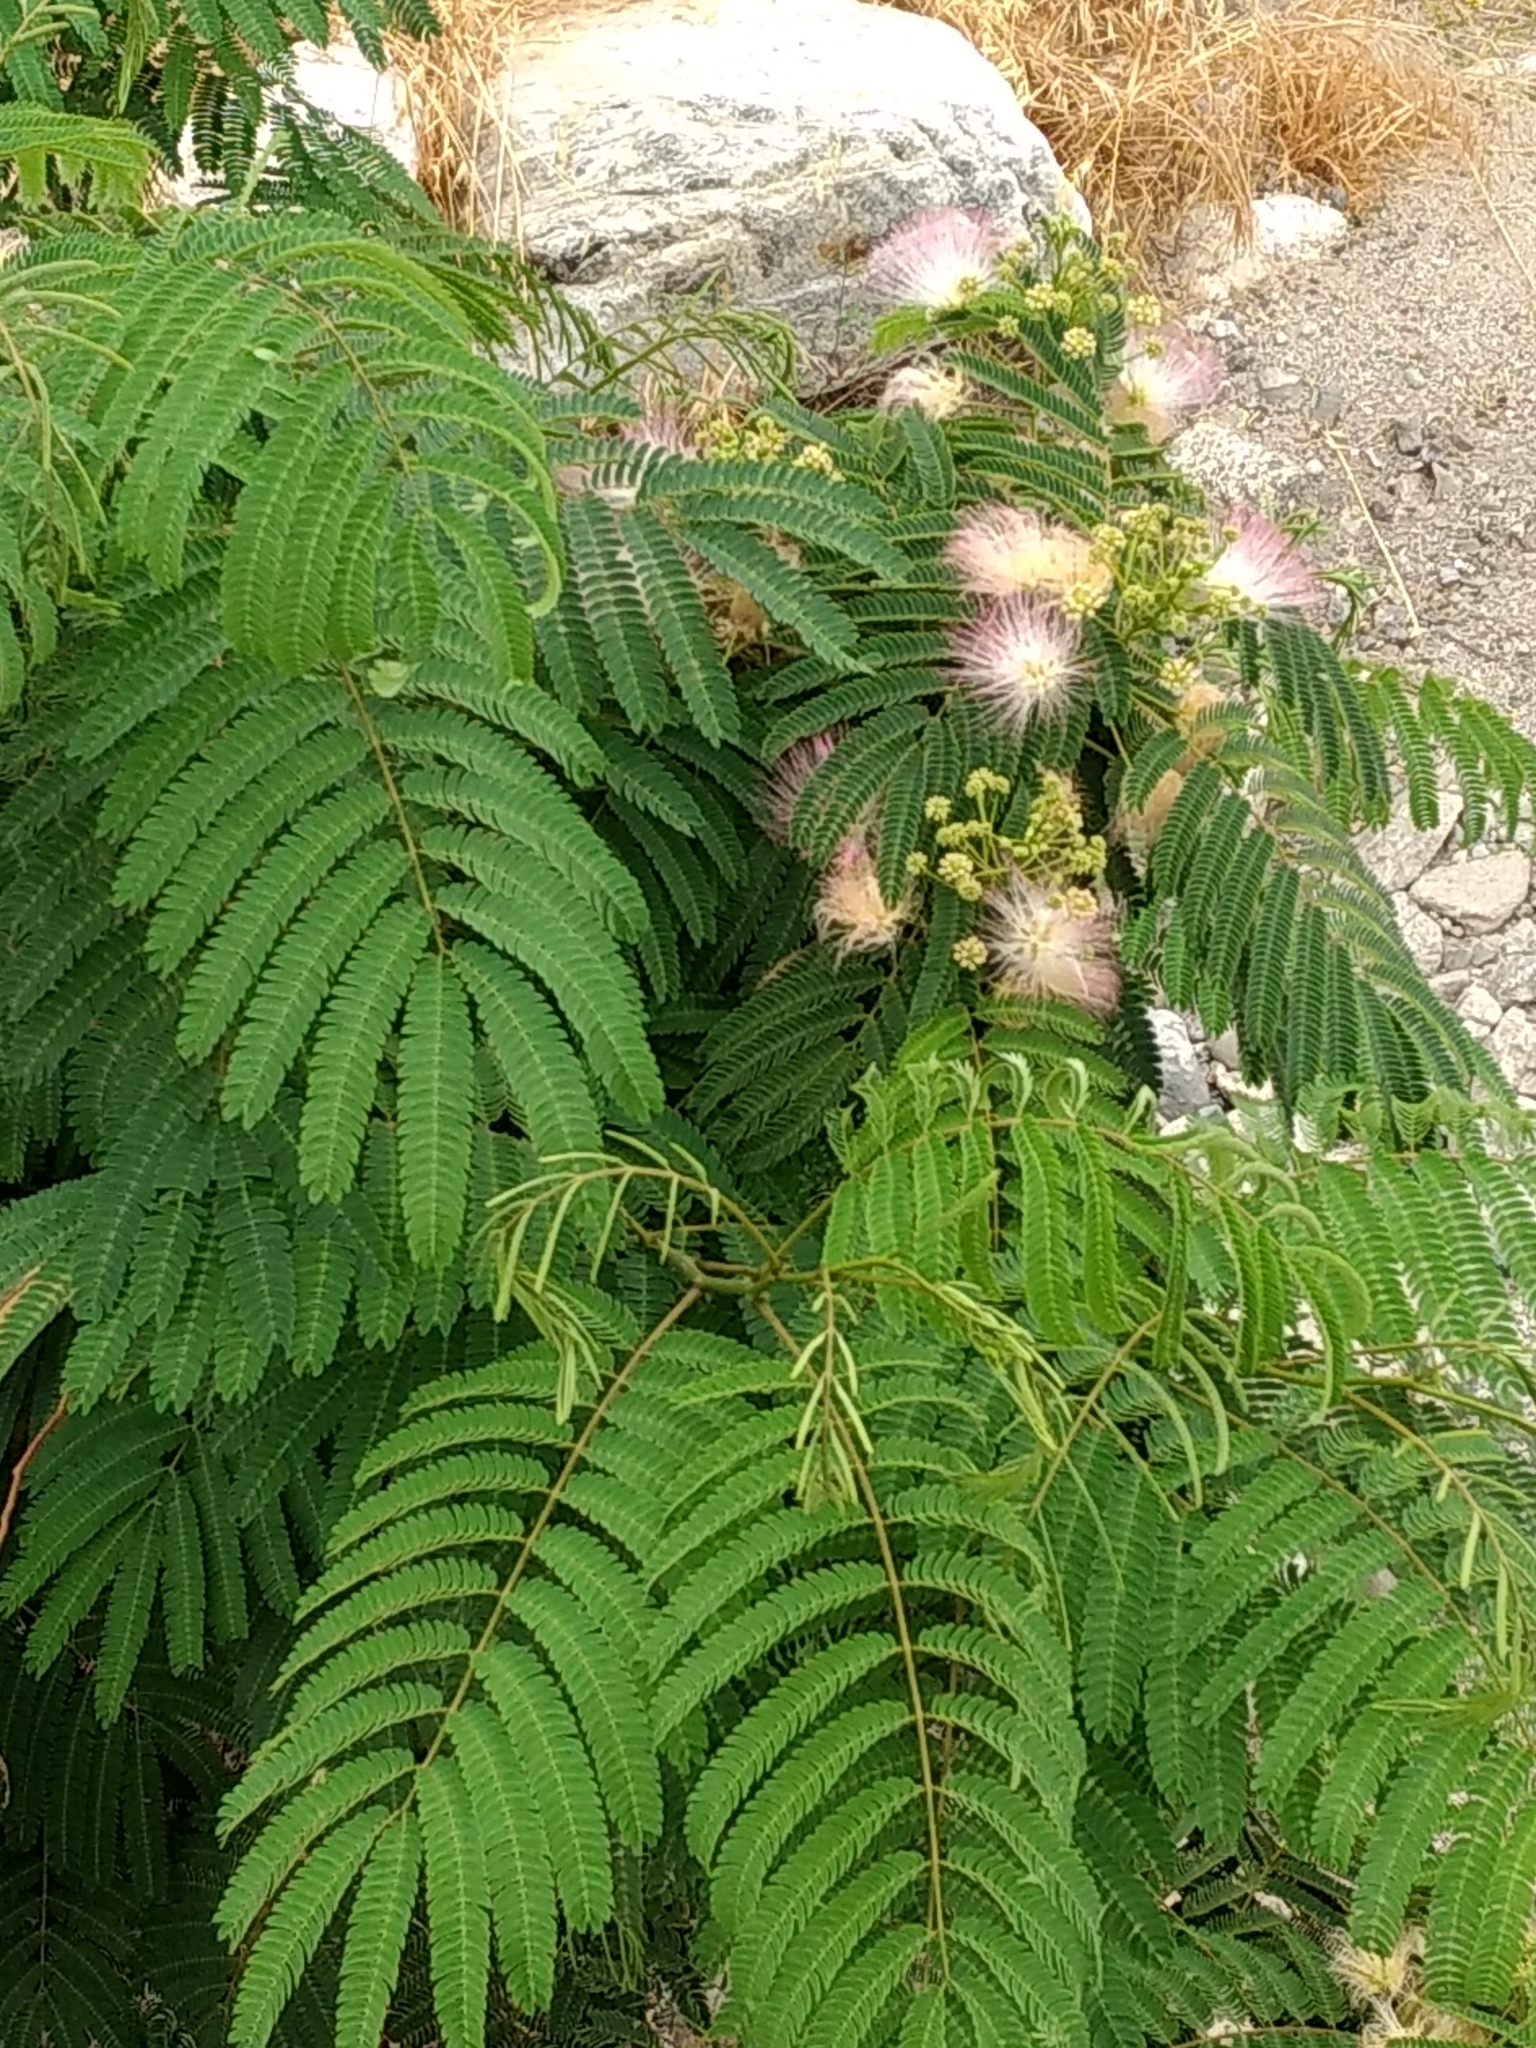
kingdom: Plantae
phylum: Tracheophyta
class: Magnoliopsida
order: Fabales
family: Fabaceae
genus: Albizia
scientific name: Albizia julibrissin
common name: Silktree
